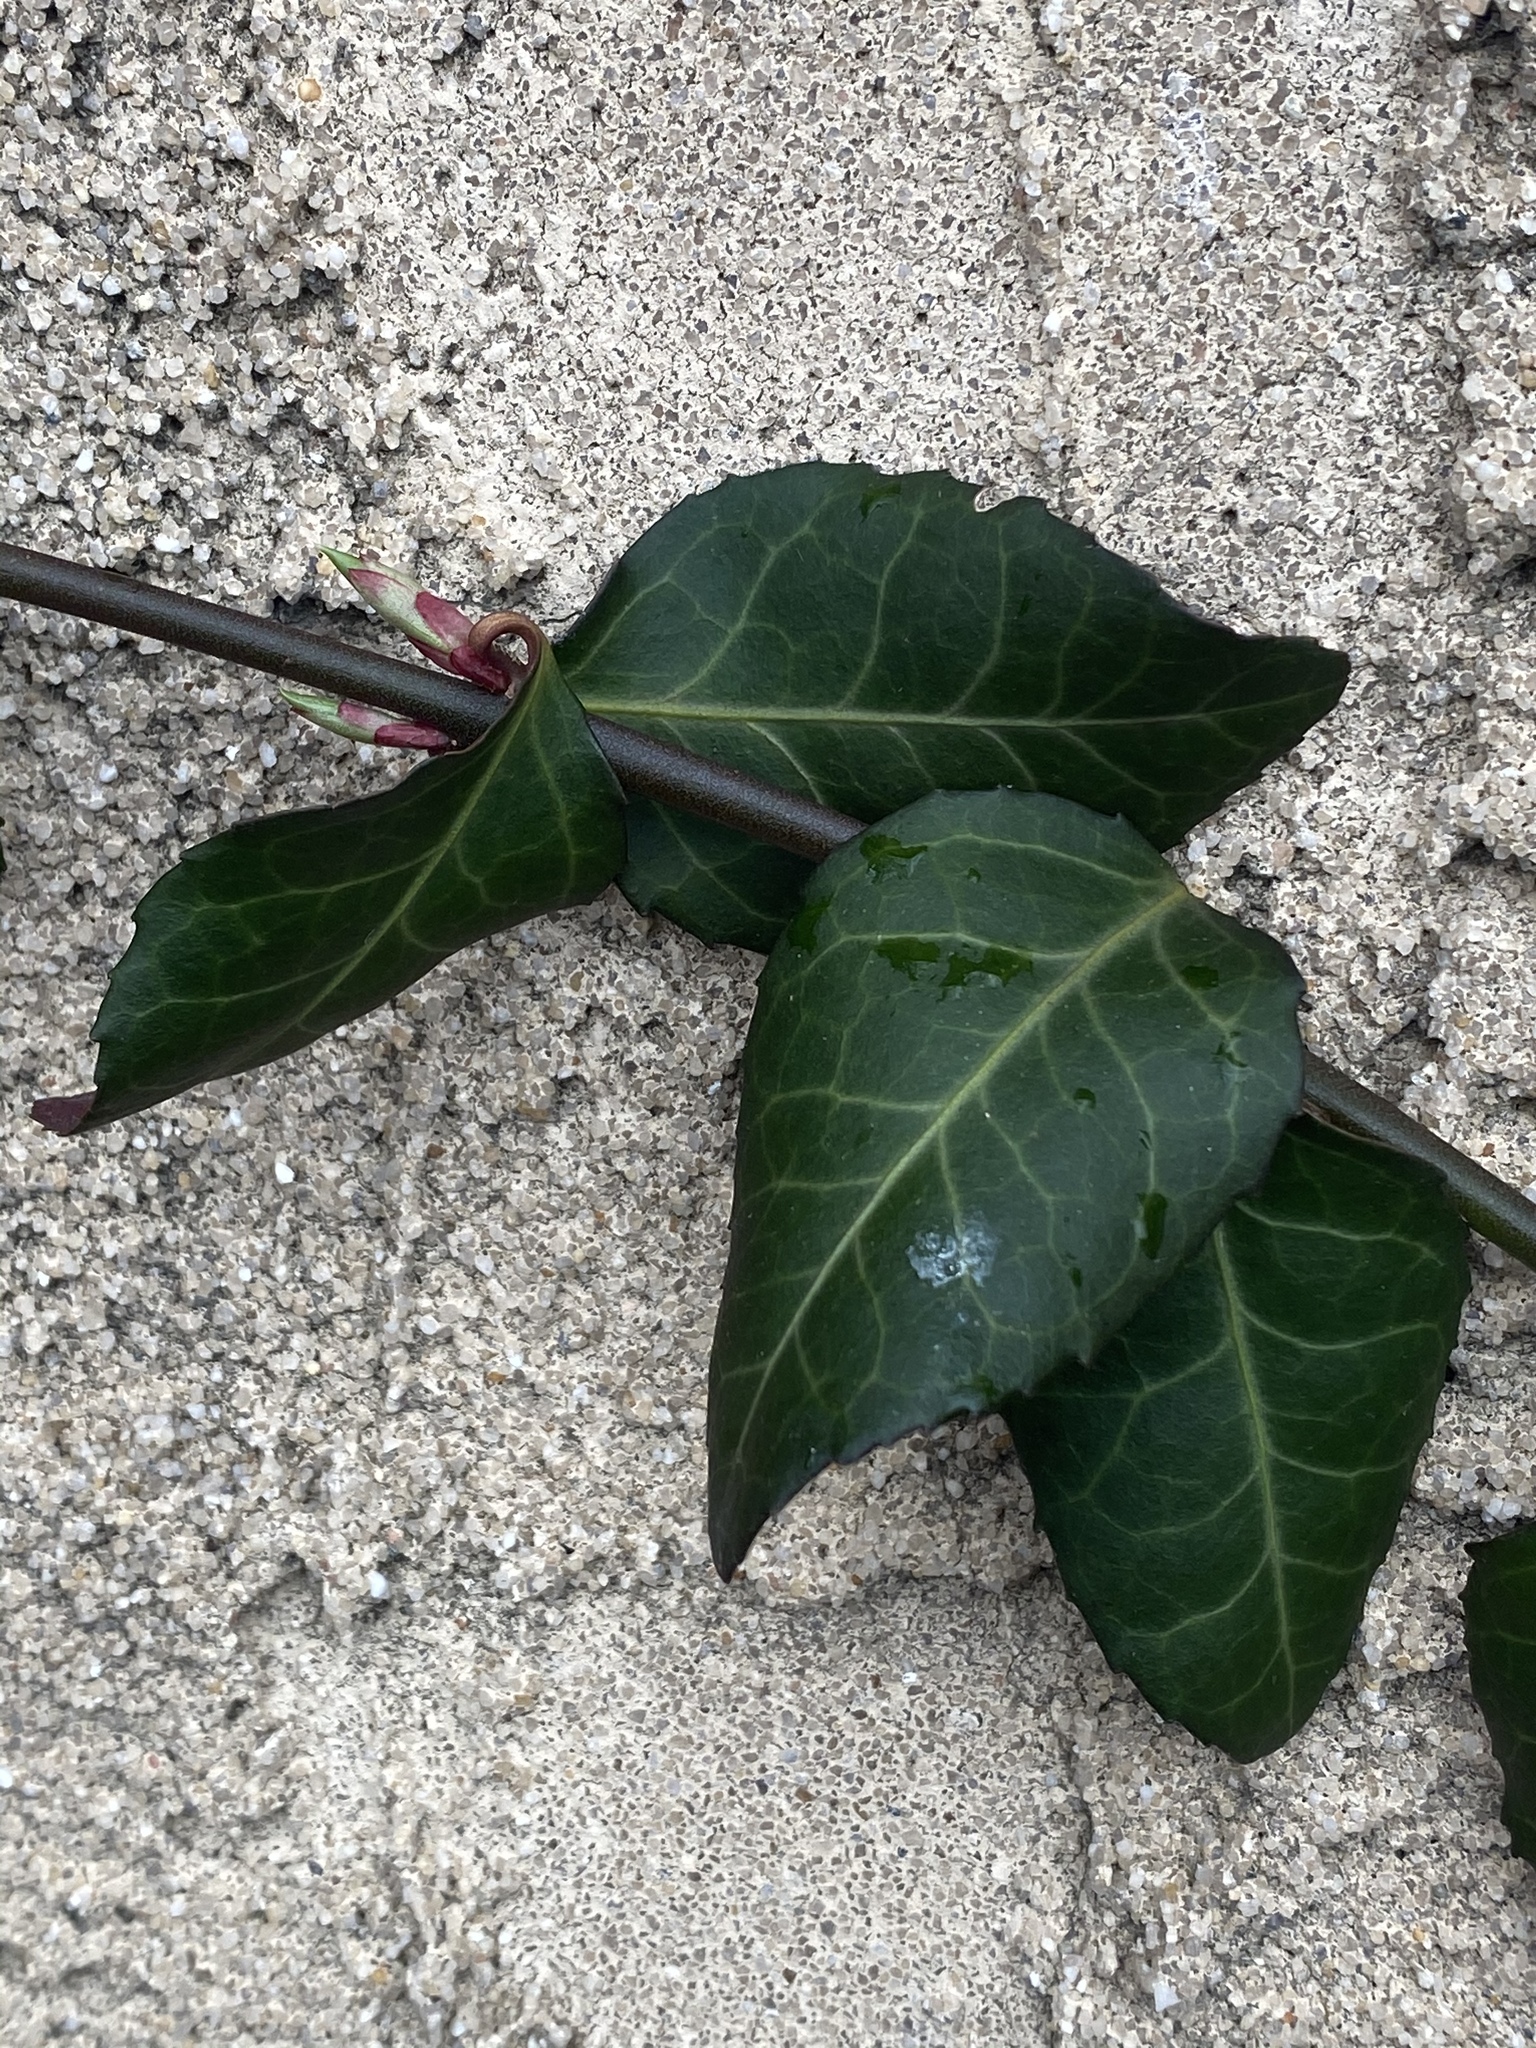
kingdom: Plantae
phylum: Tracheophyta
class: Magnoliopsida
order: Celastrales
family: Celastraceae
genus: Euonymus
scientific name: Euonymus fortunei
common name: Climbing euonymus
